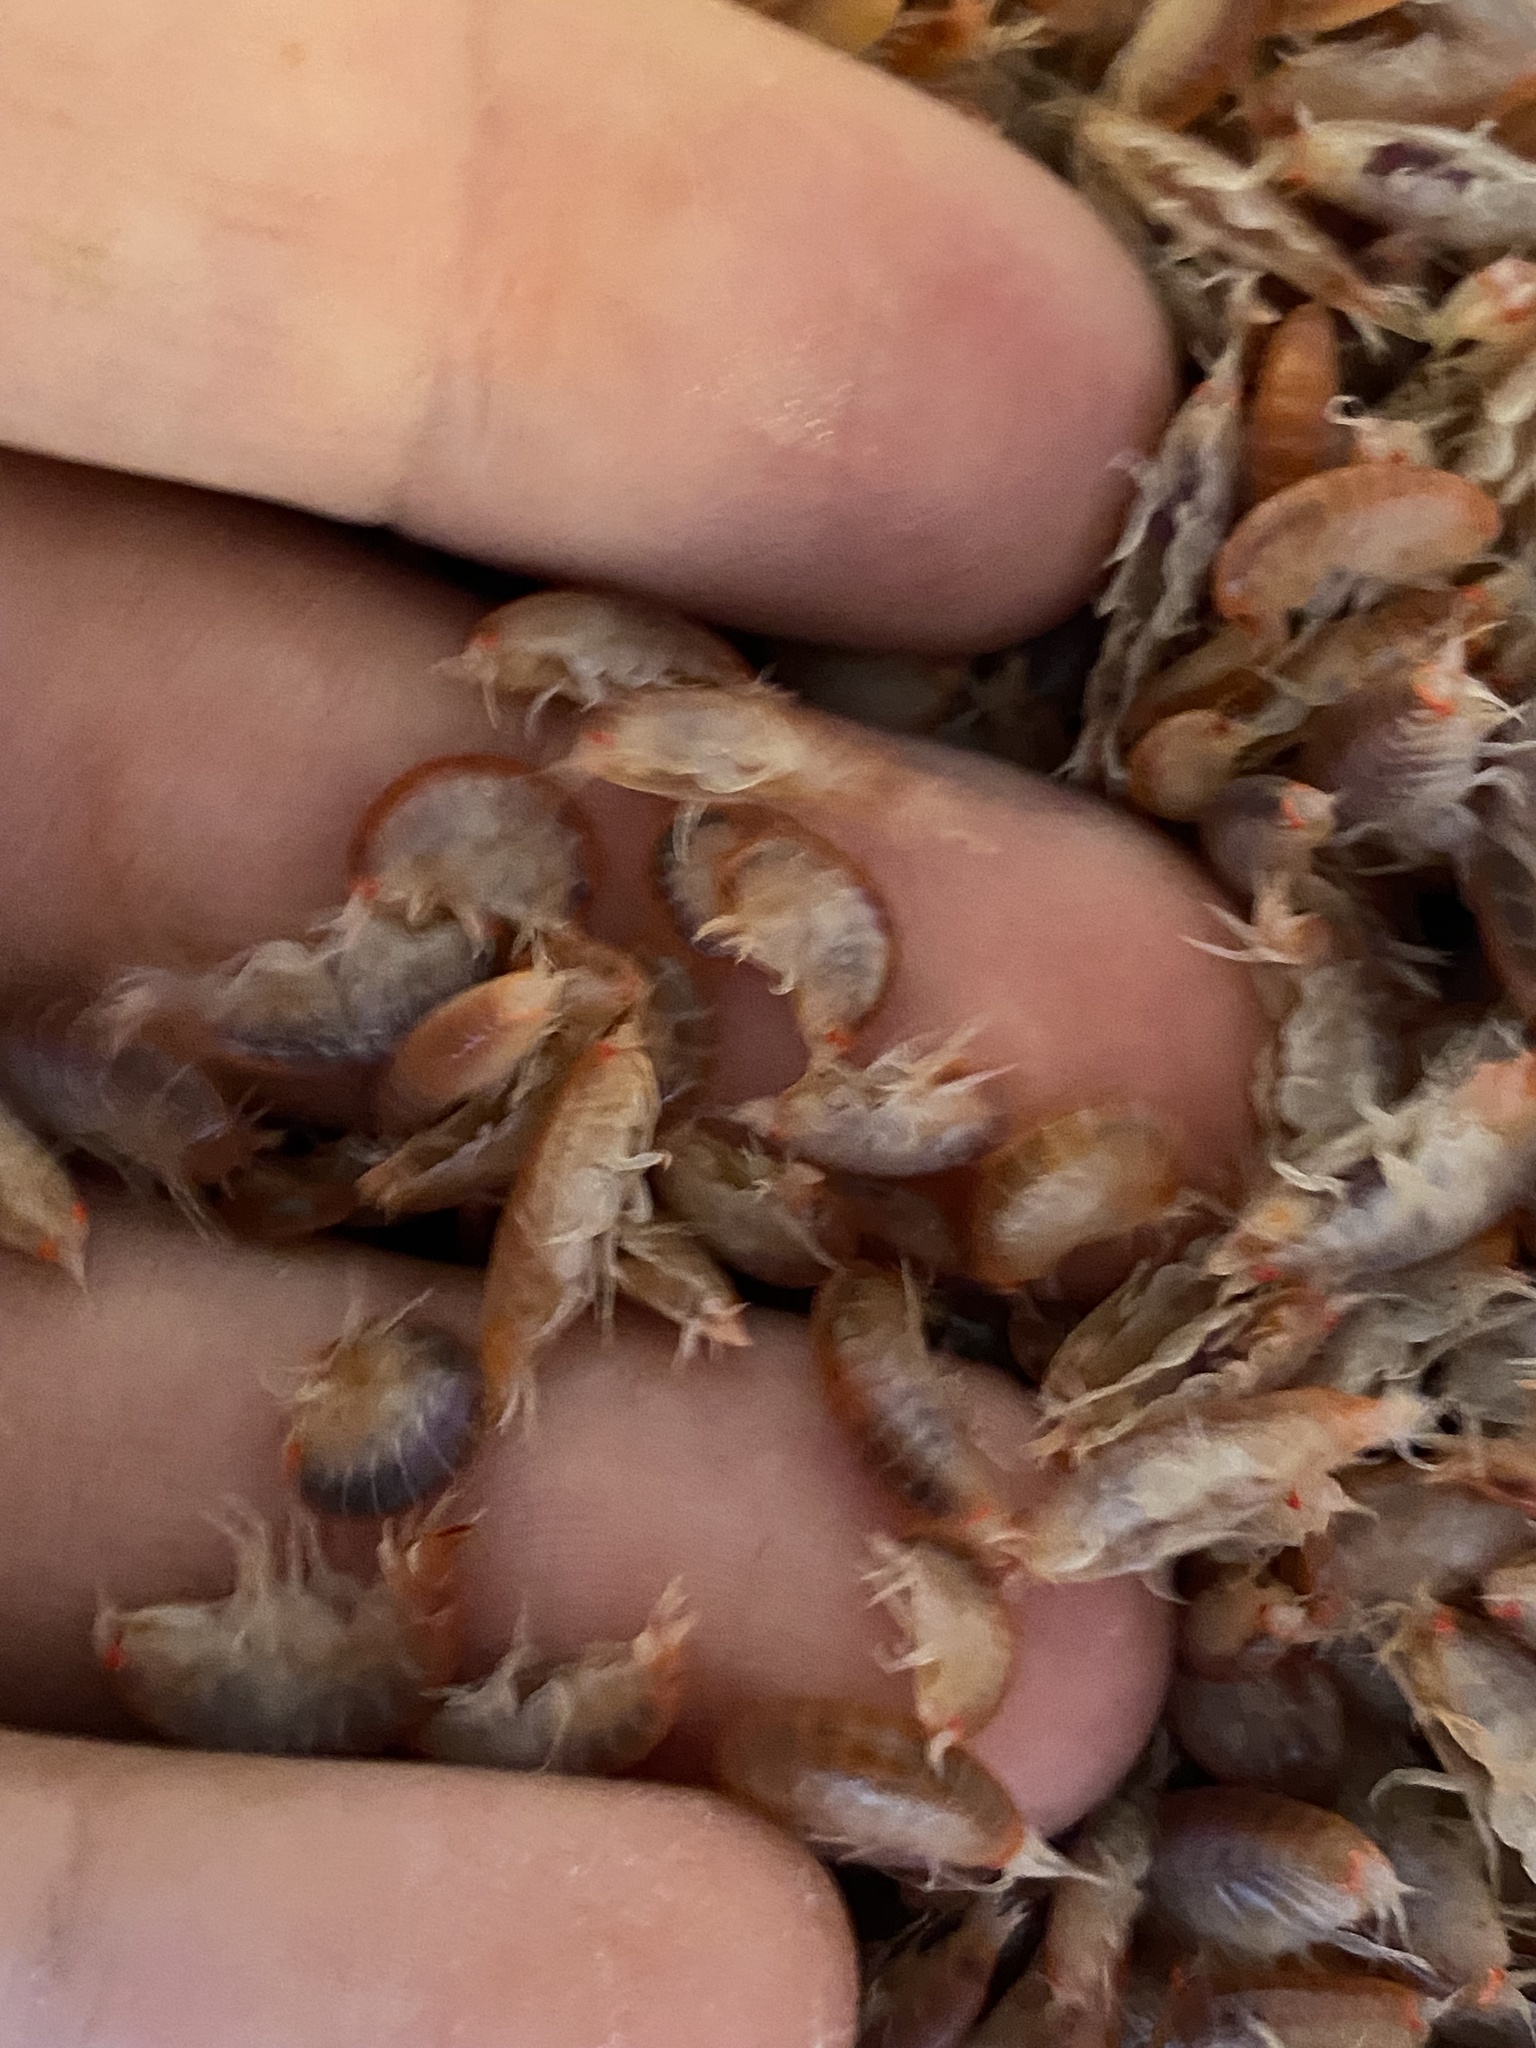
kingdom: Animalia
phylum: Arthropoda
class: Malacostraca
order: Amphipoda
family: Uristidae
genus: Tmetonyx
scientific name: Tmetonyx cicada
